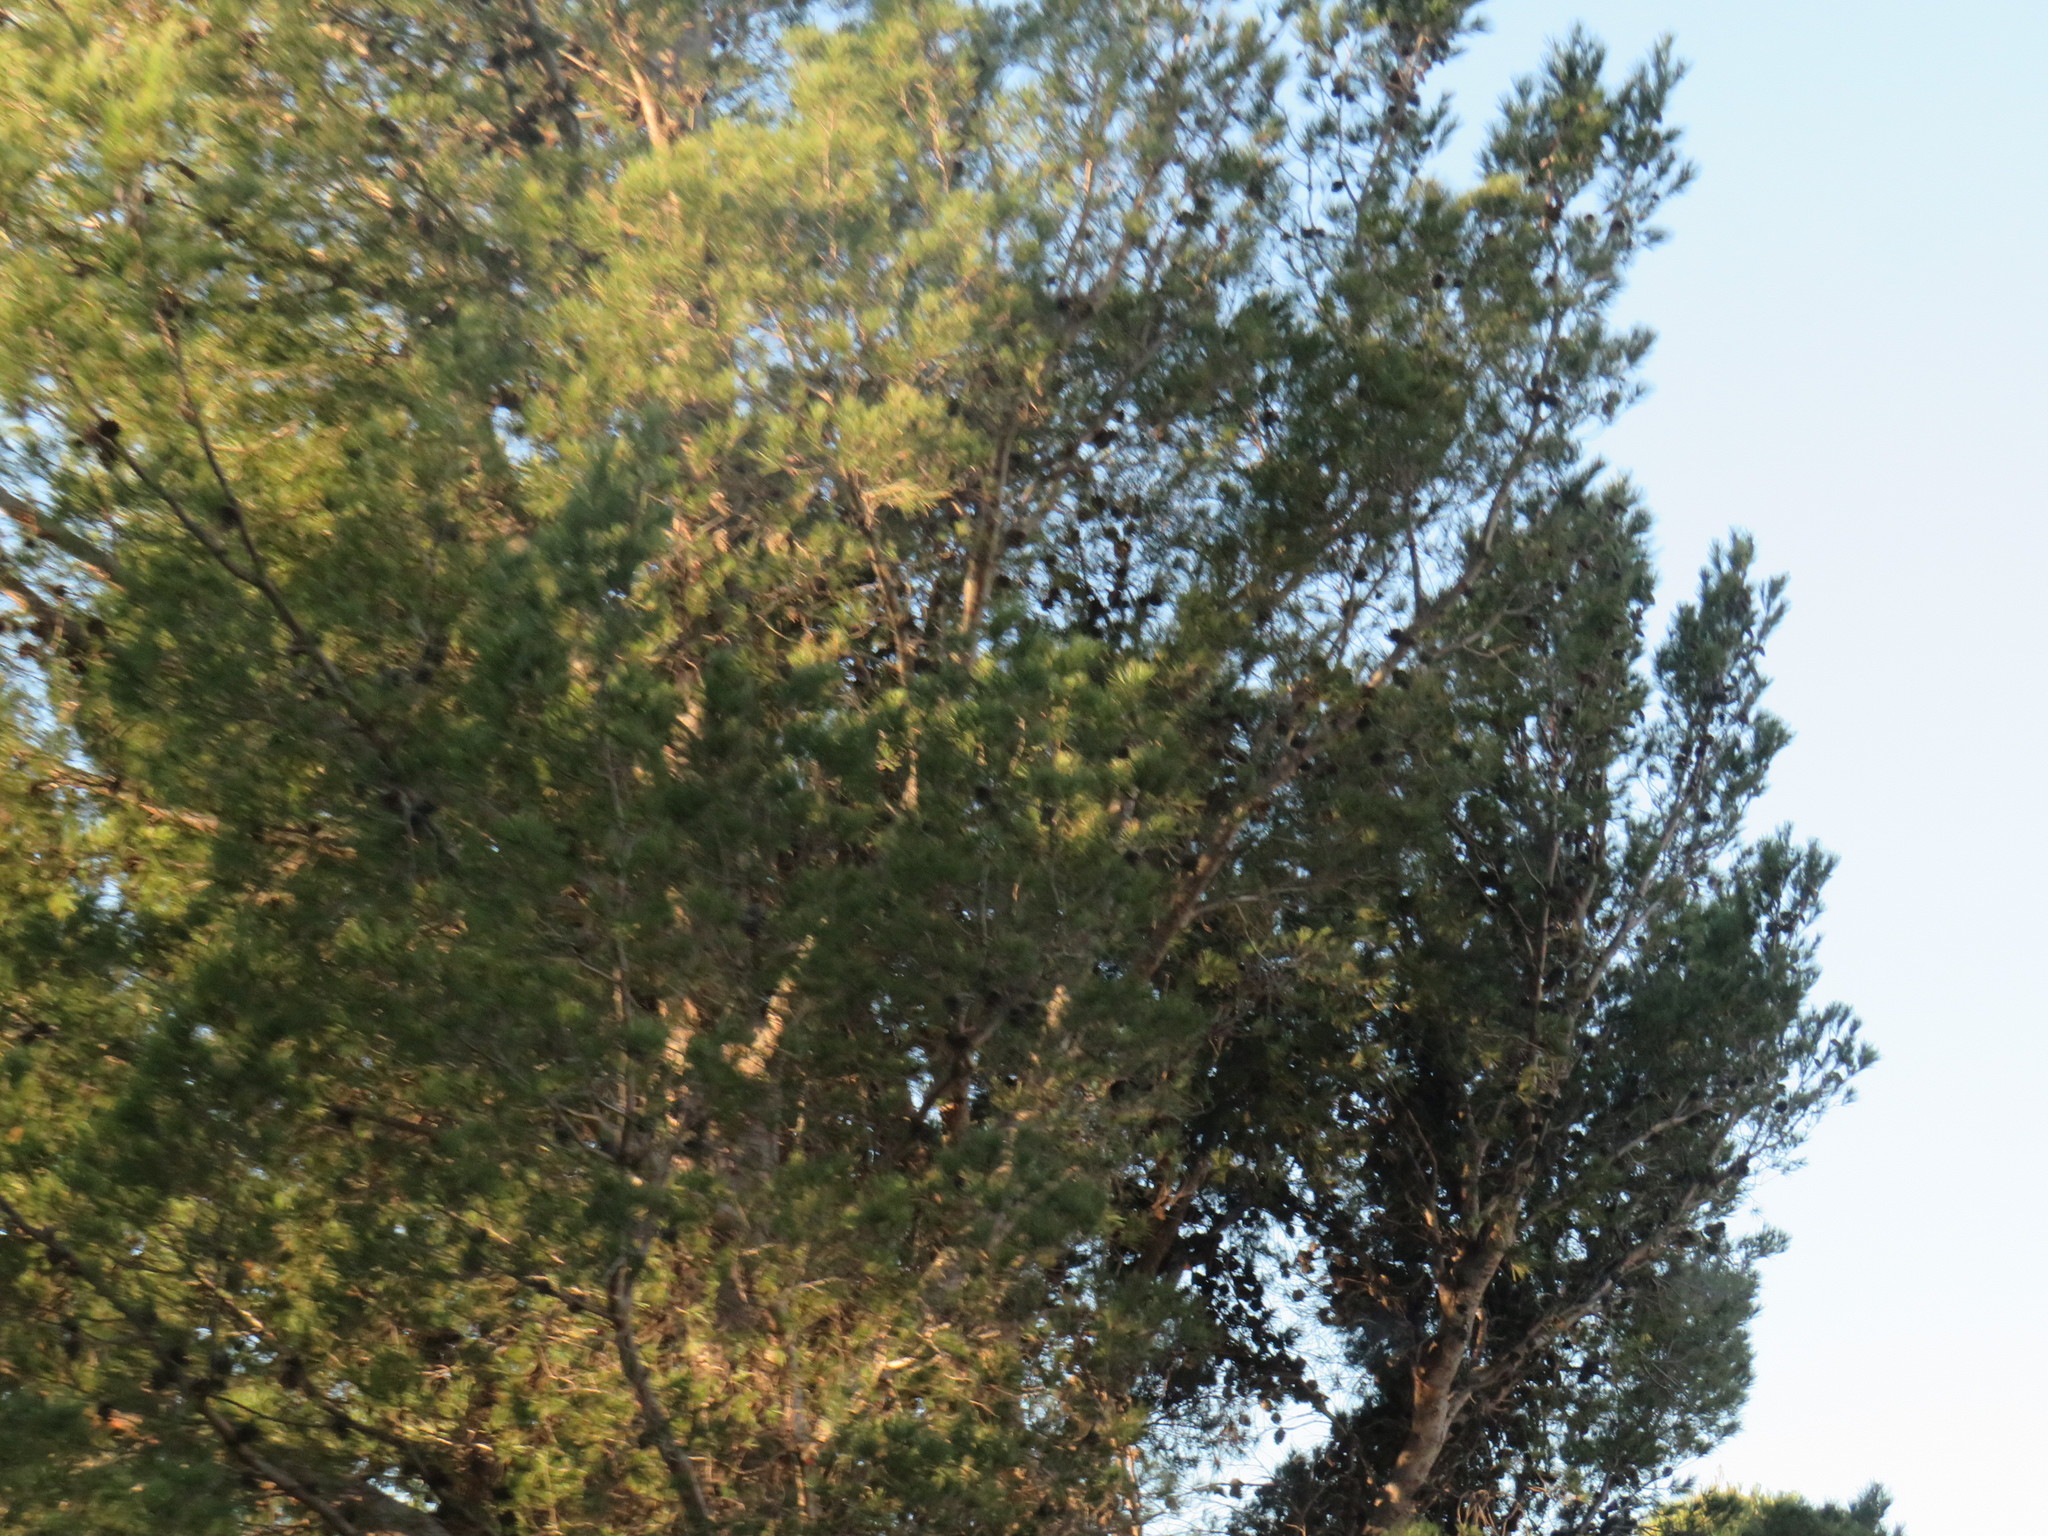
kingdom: Plantae
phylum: Tracheophyta
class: Pinopsida
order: Pinales
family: Pinaceae
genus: Pinus
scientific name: Pinus halepensis
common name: Aleppo pine
